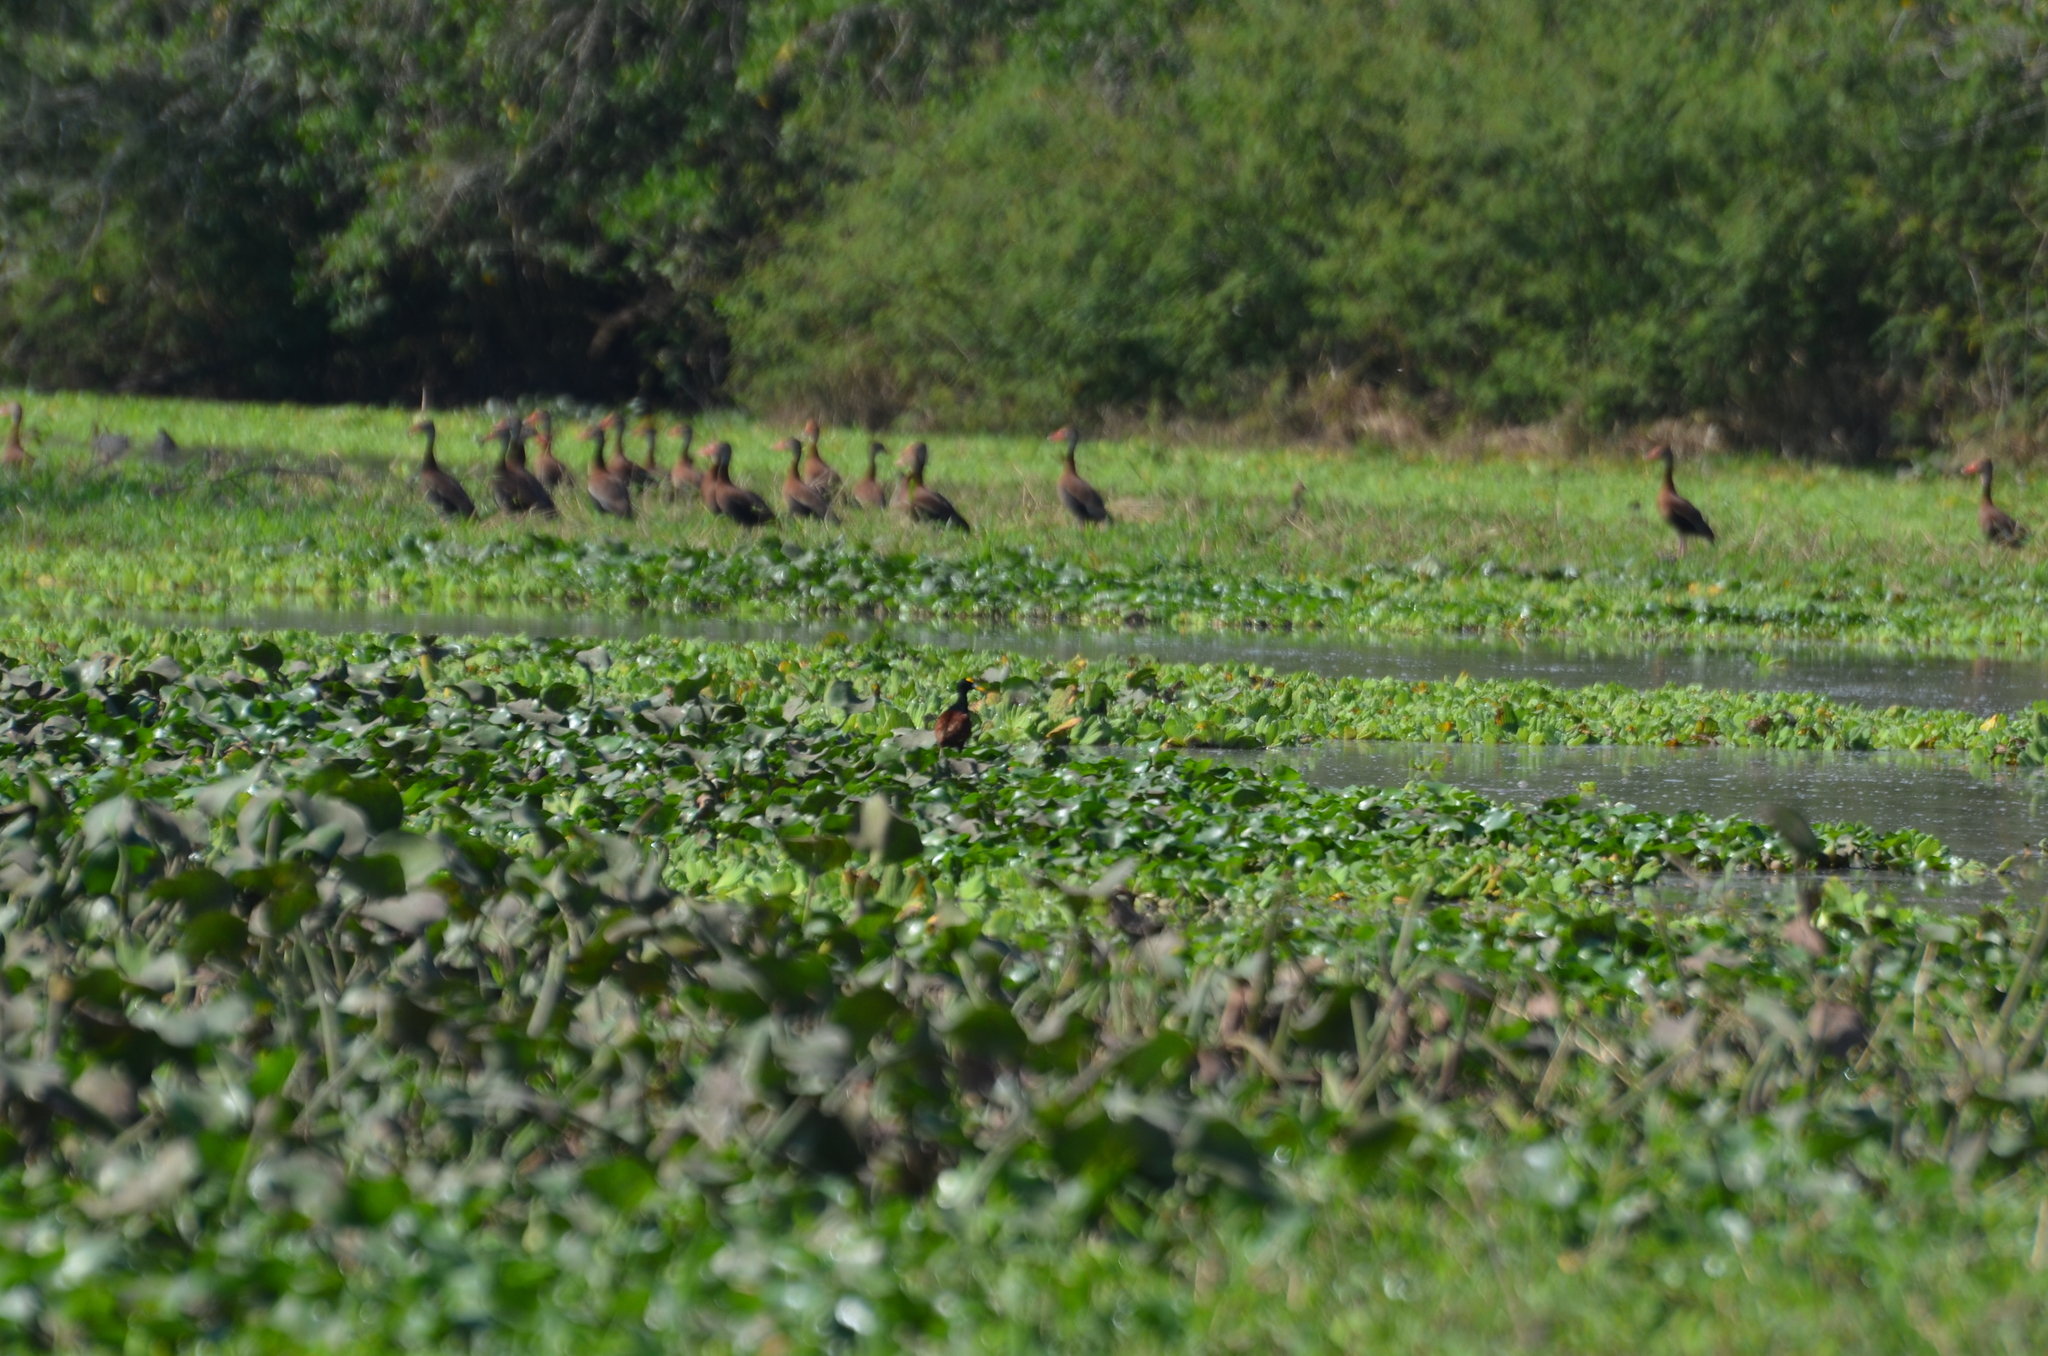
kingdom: Animalia
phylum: Chordata
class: Aves
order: Charadriiformes
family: Jacanidae
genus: Jacana
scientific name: Jacana spinosa
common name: Northern jacana
